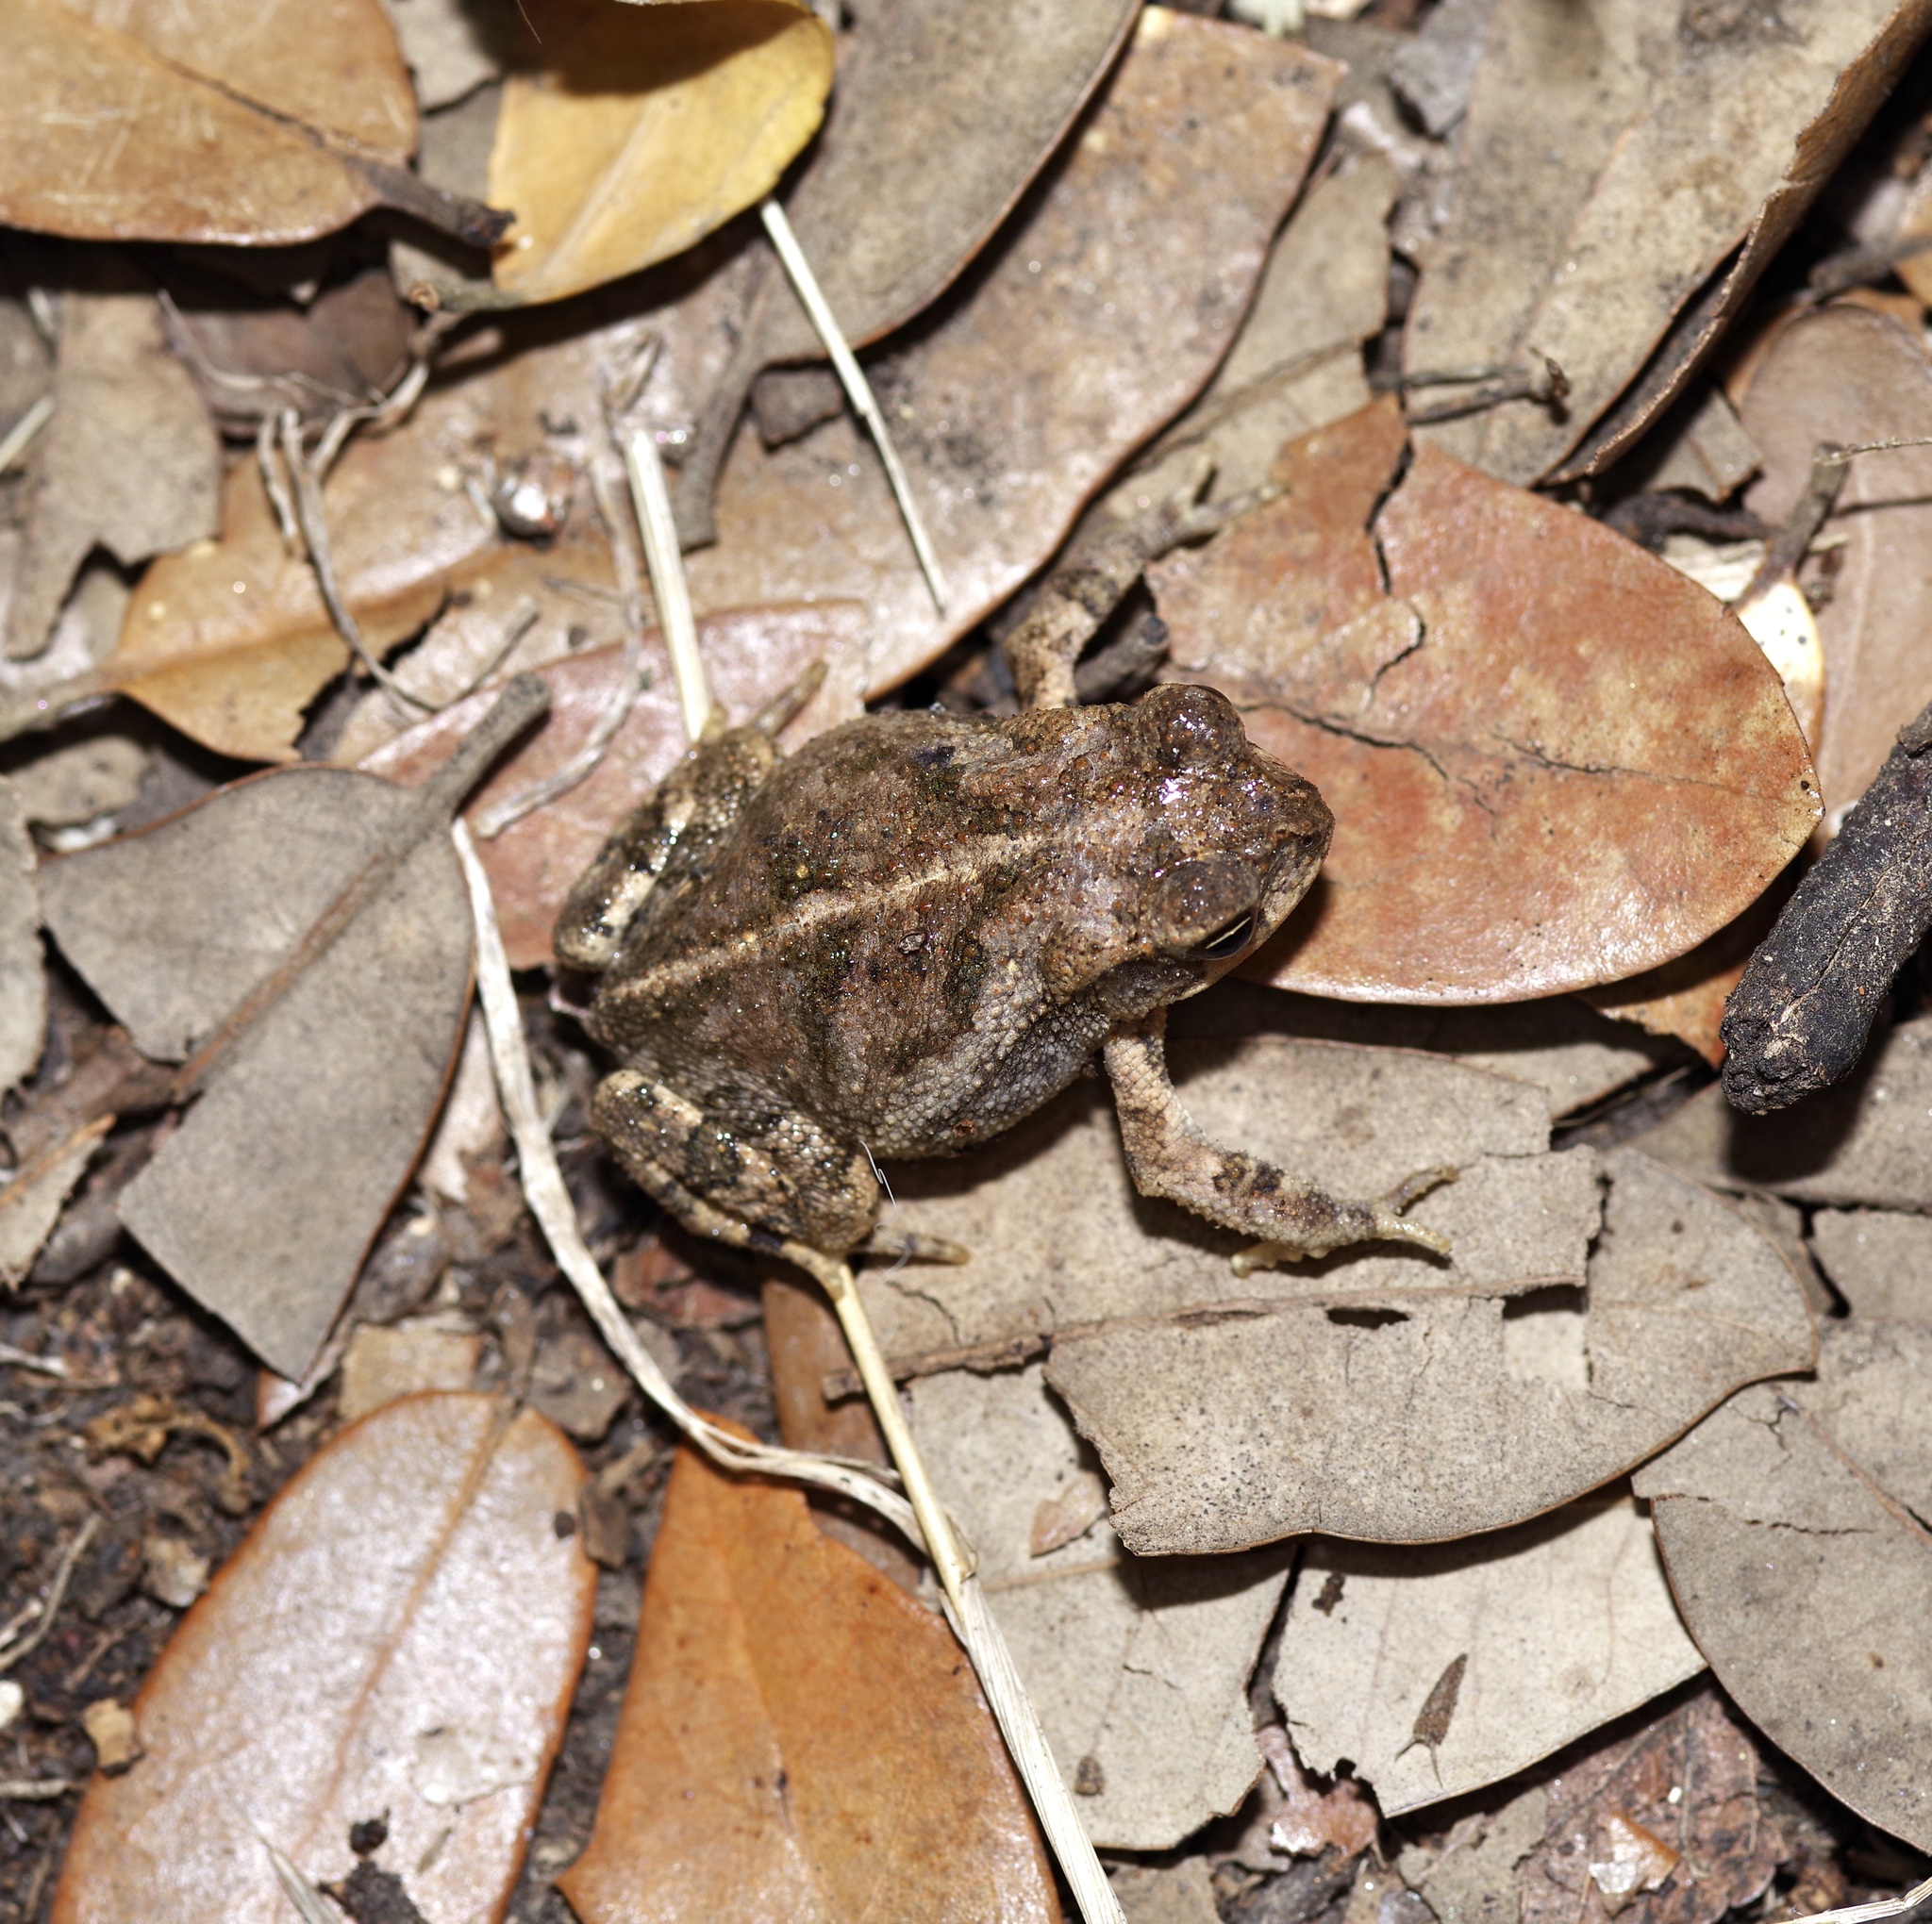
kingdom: Animalia
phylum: Chordata
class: Amphibia
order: Anura
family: Bufonidae
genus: Incilius
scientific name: Incilius nebulifer
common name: Gulf coast toad
